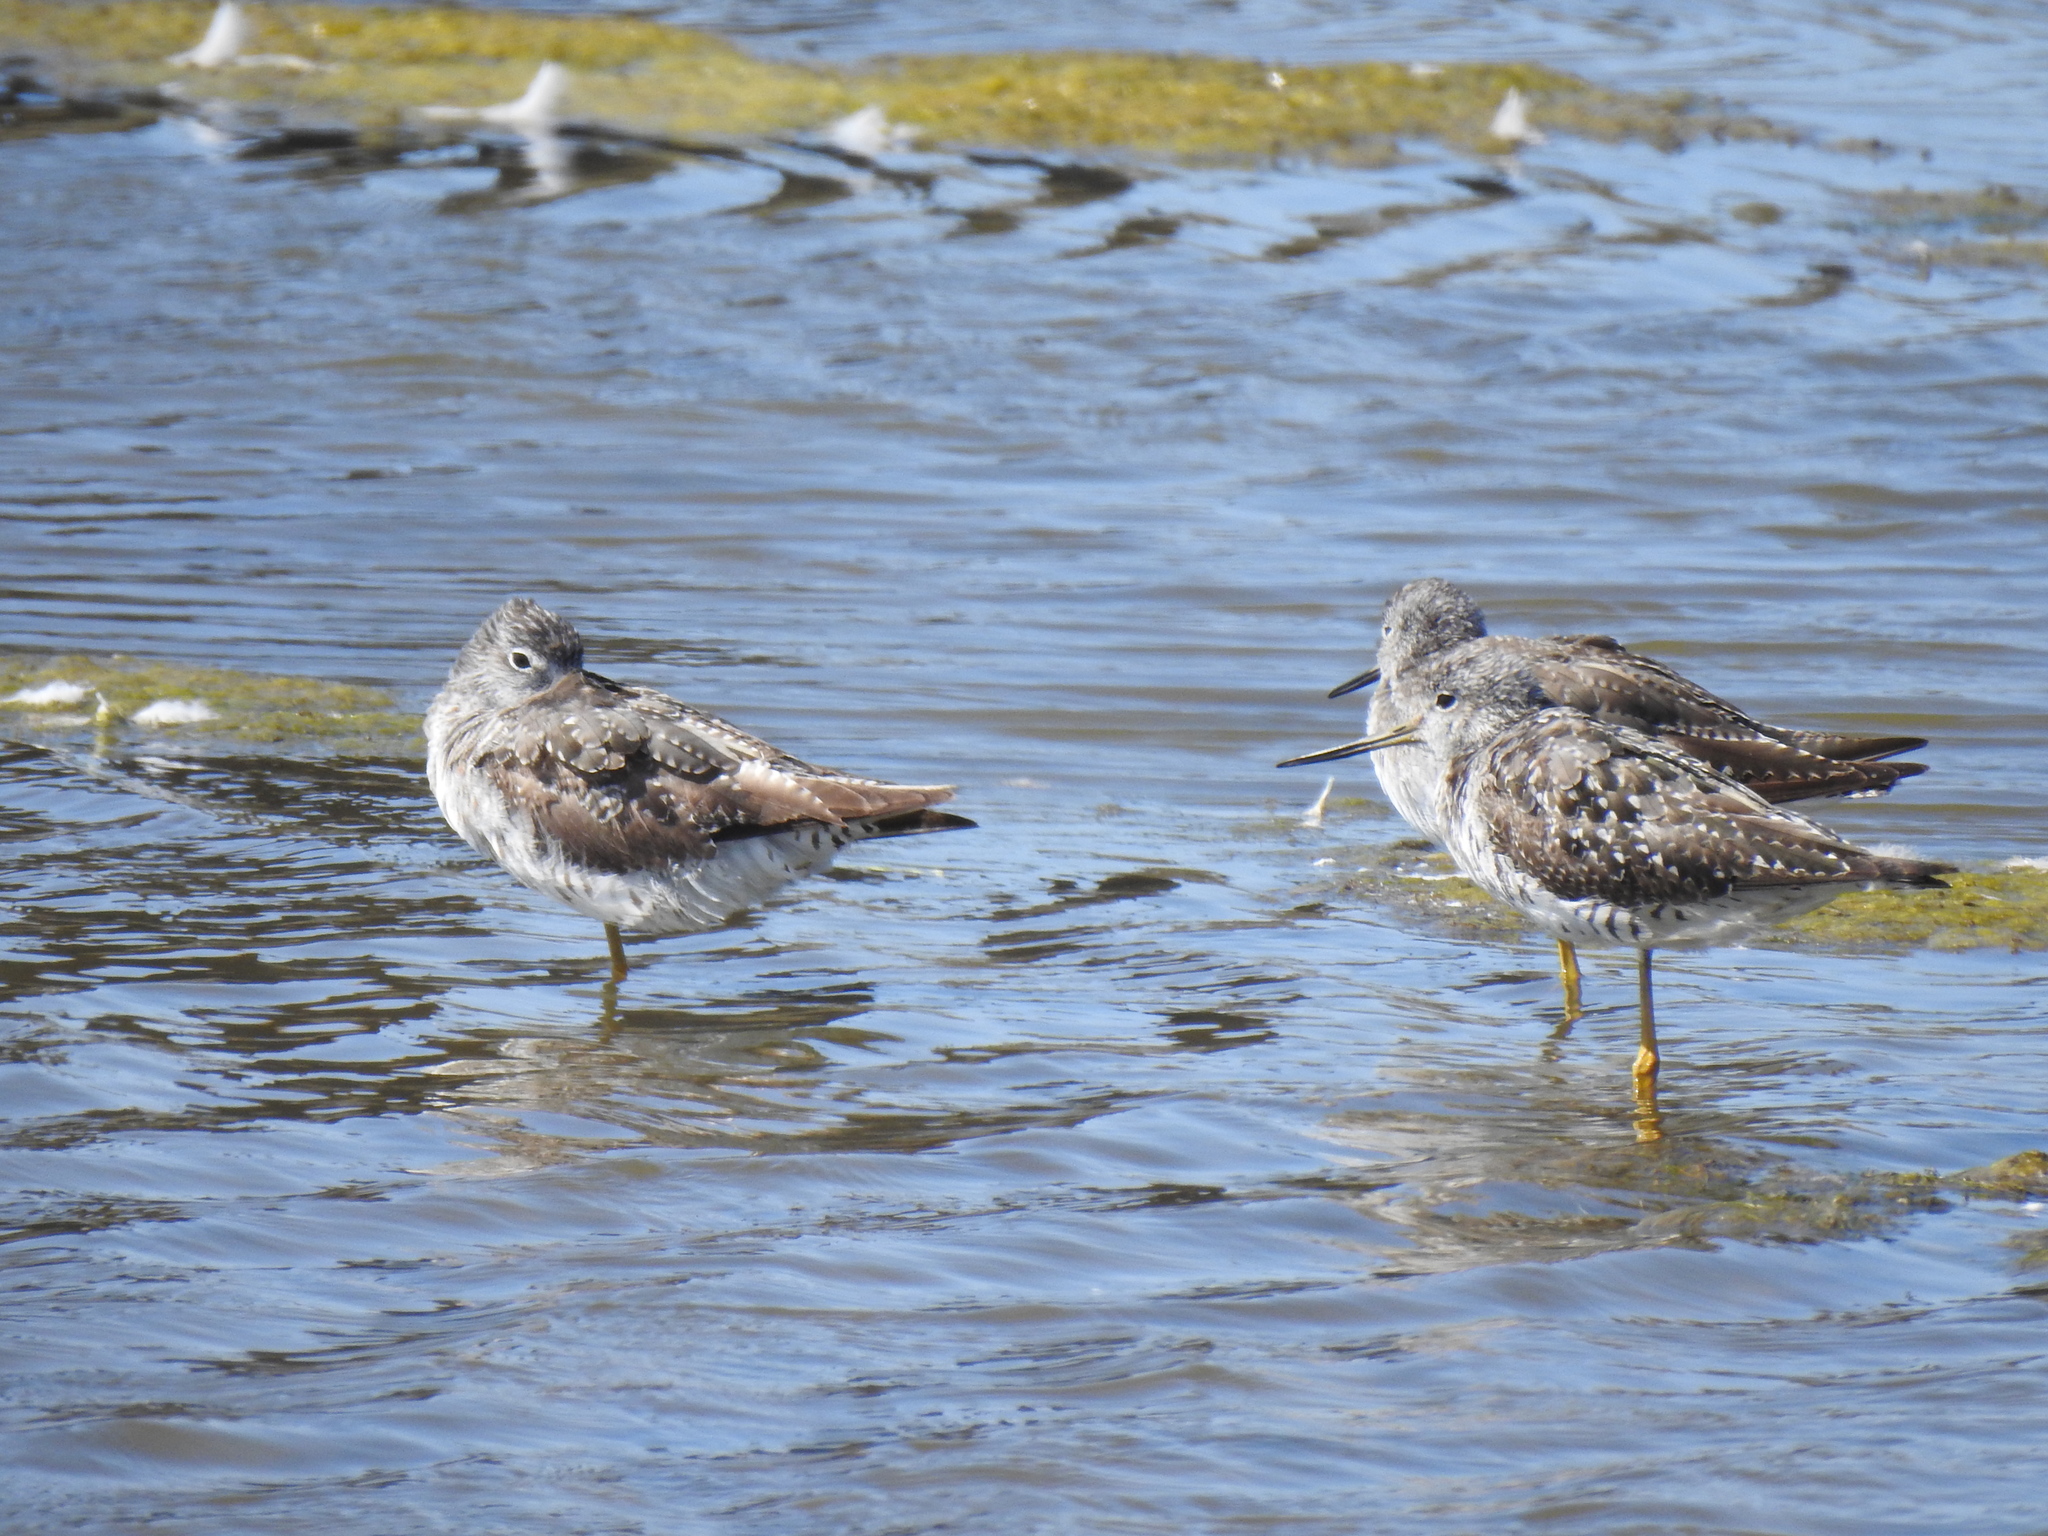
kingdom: Animalia
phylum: Chordata
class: Aves
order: Charadriiformes
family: Scolopacidae
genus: Tringa
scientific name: Tringa melanoleuca
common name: Greater yellowlegs
